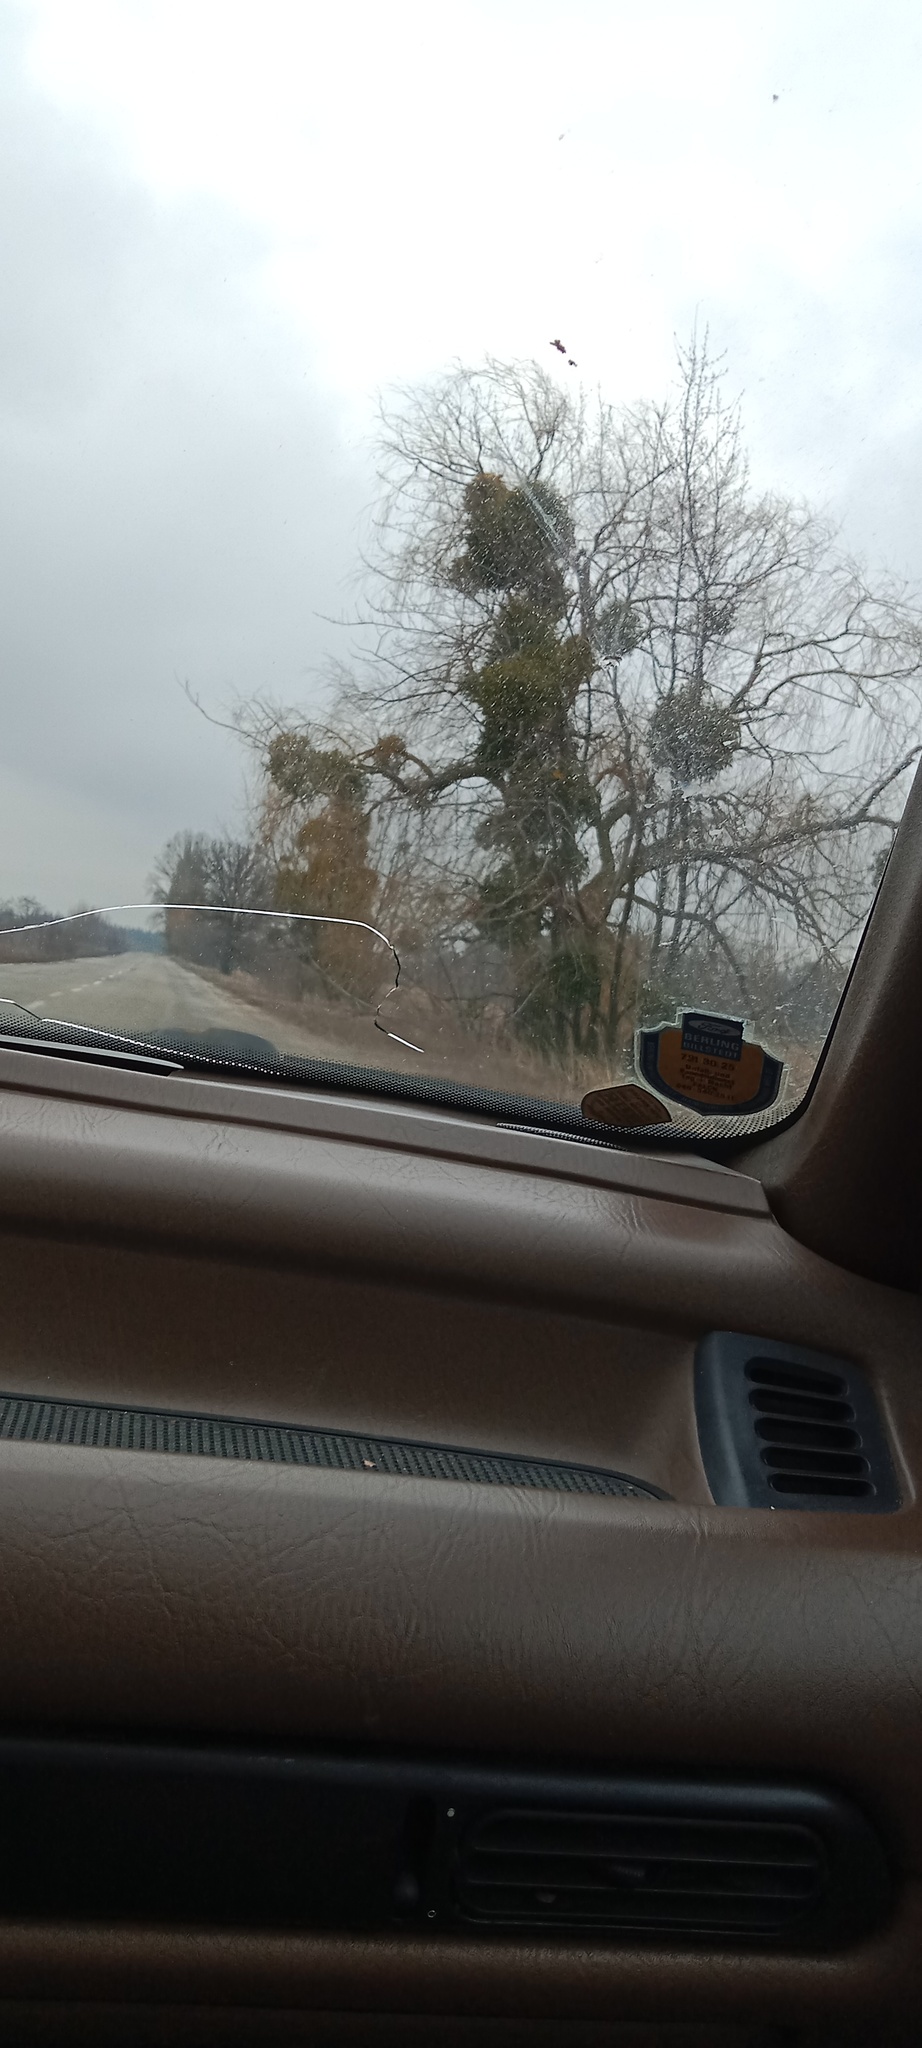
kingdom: Plantae
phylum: Tracheophyta
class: Magnoliopsida
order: Santalales
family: Viscaceae
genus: Viscum
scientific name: Viscum album
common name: Mistletoe
